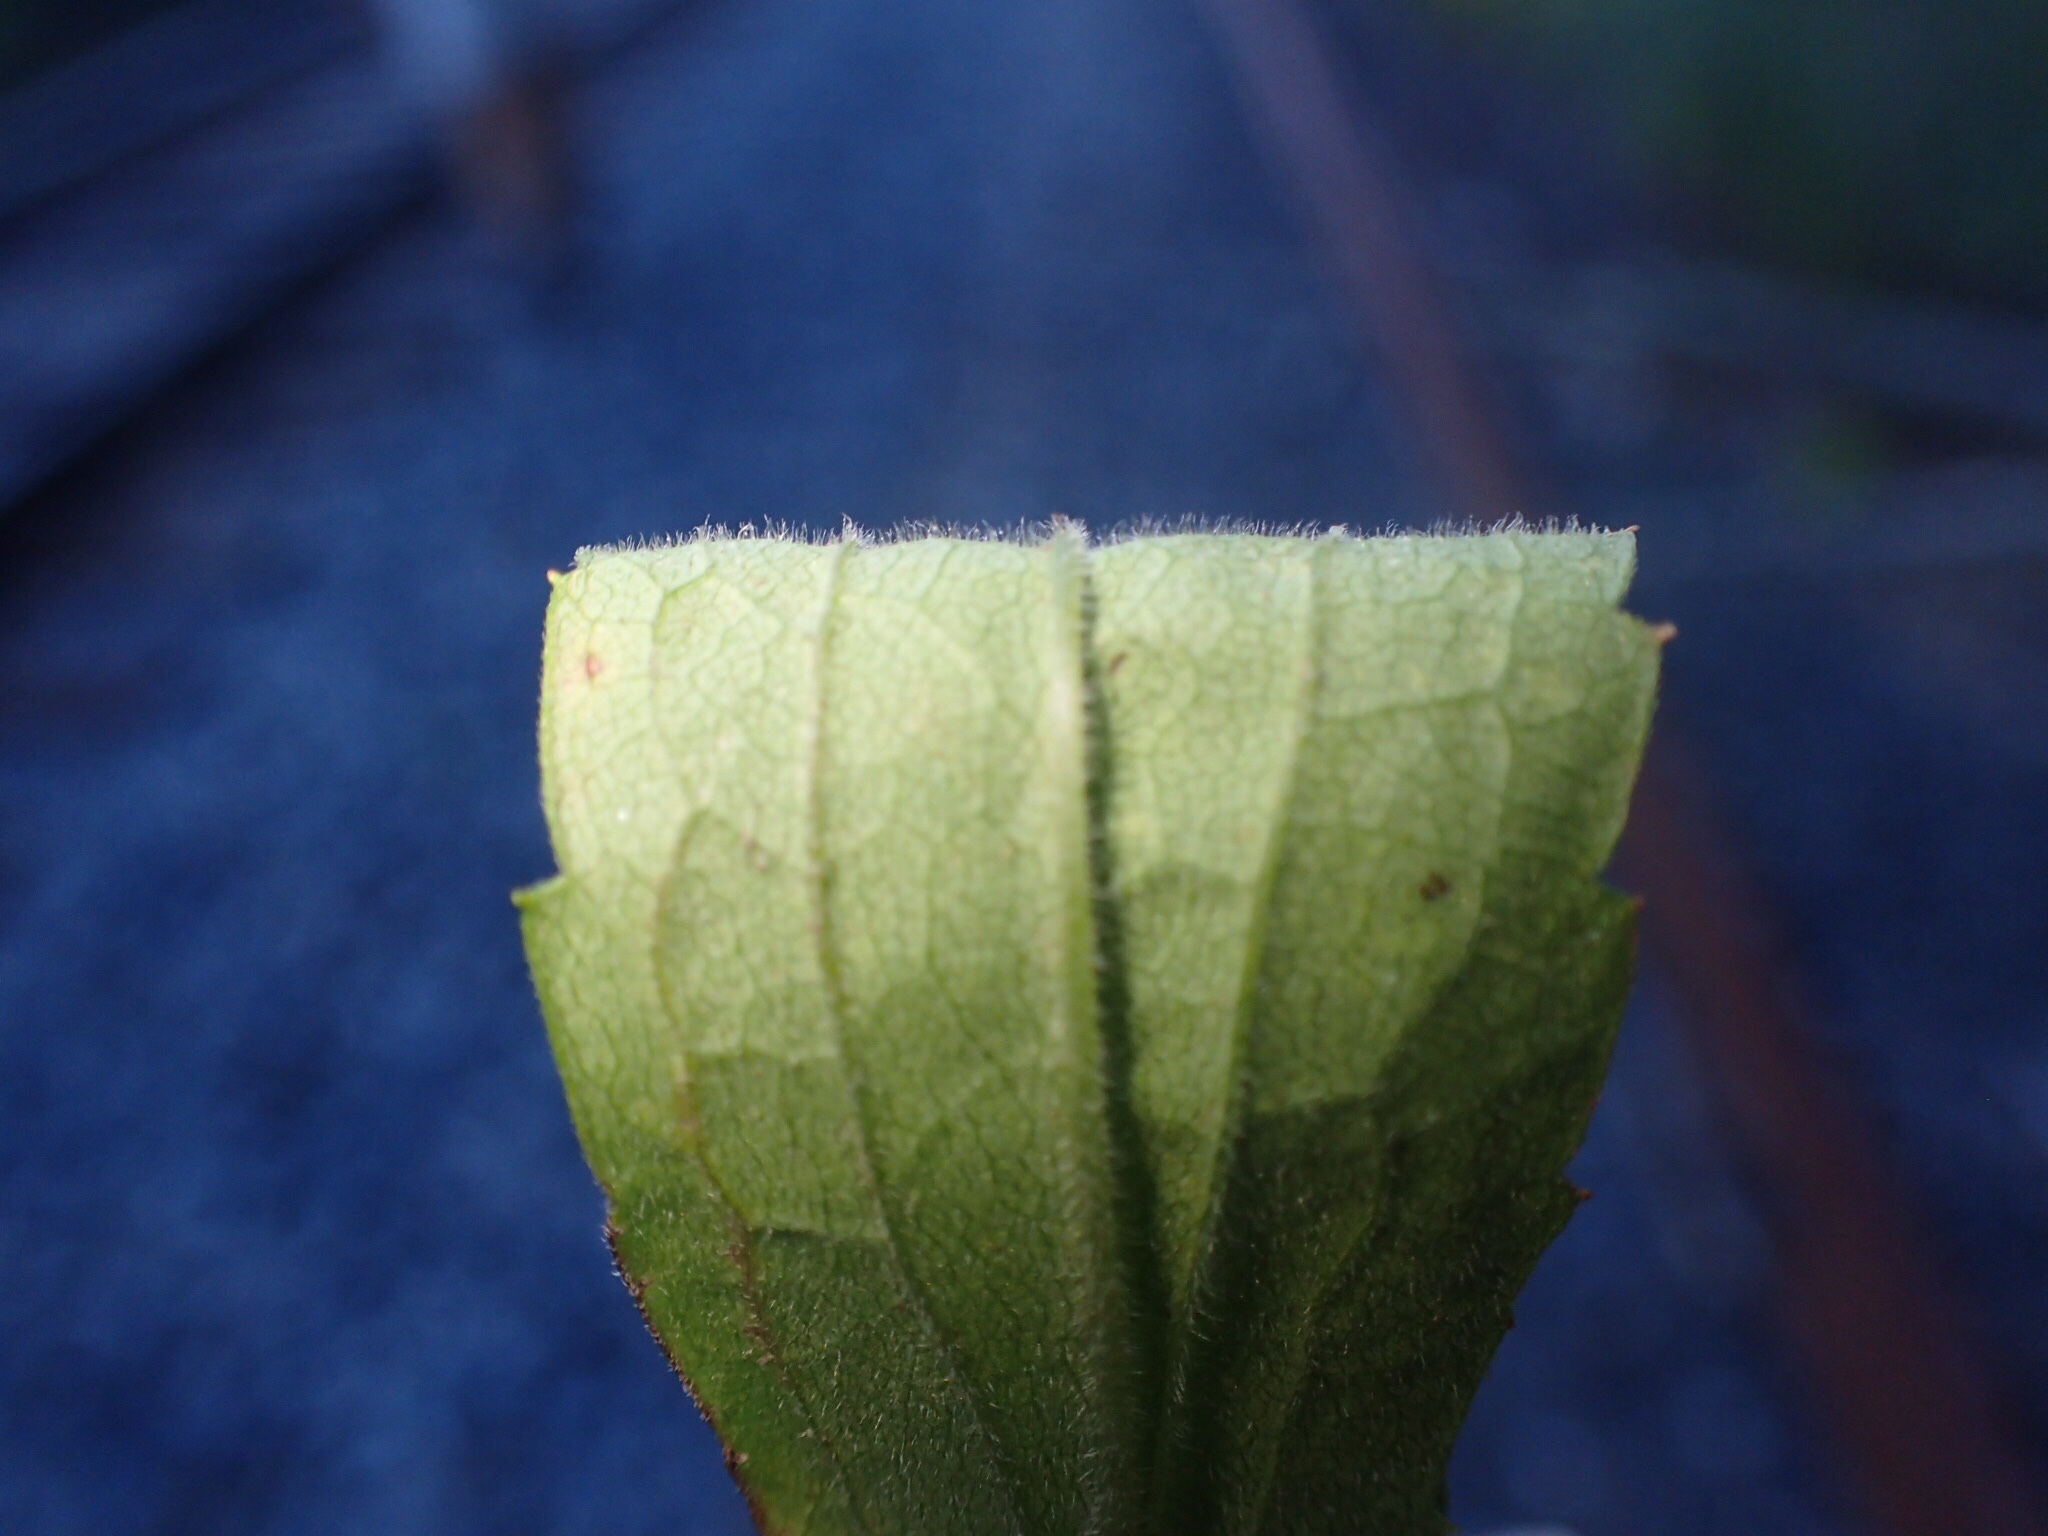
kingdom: Plantae
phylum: Tracheophyta
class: Magnoliopsida
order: Asterales
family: Asteraceae
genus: Solidago
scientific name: Solidago altissima
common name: Late goldenrod
